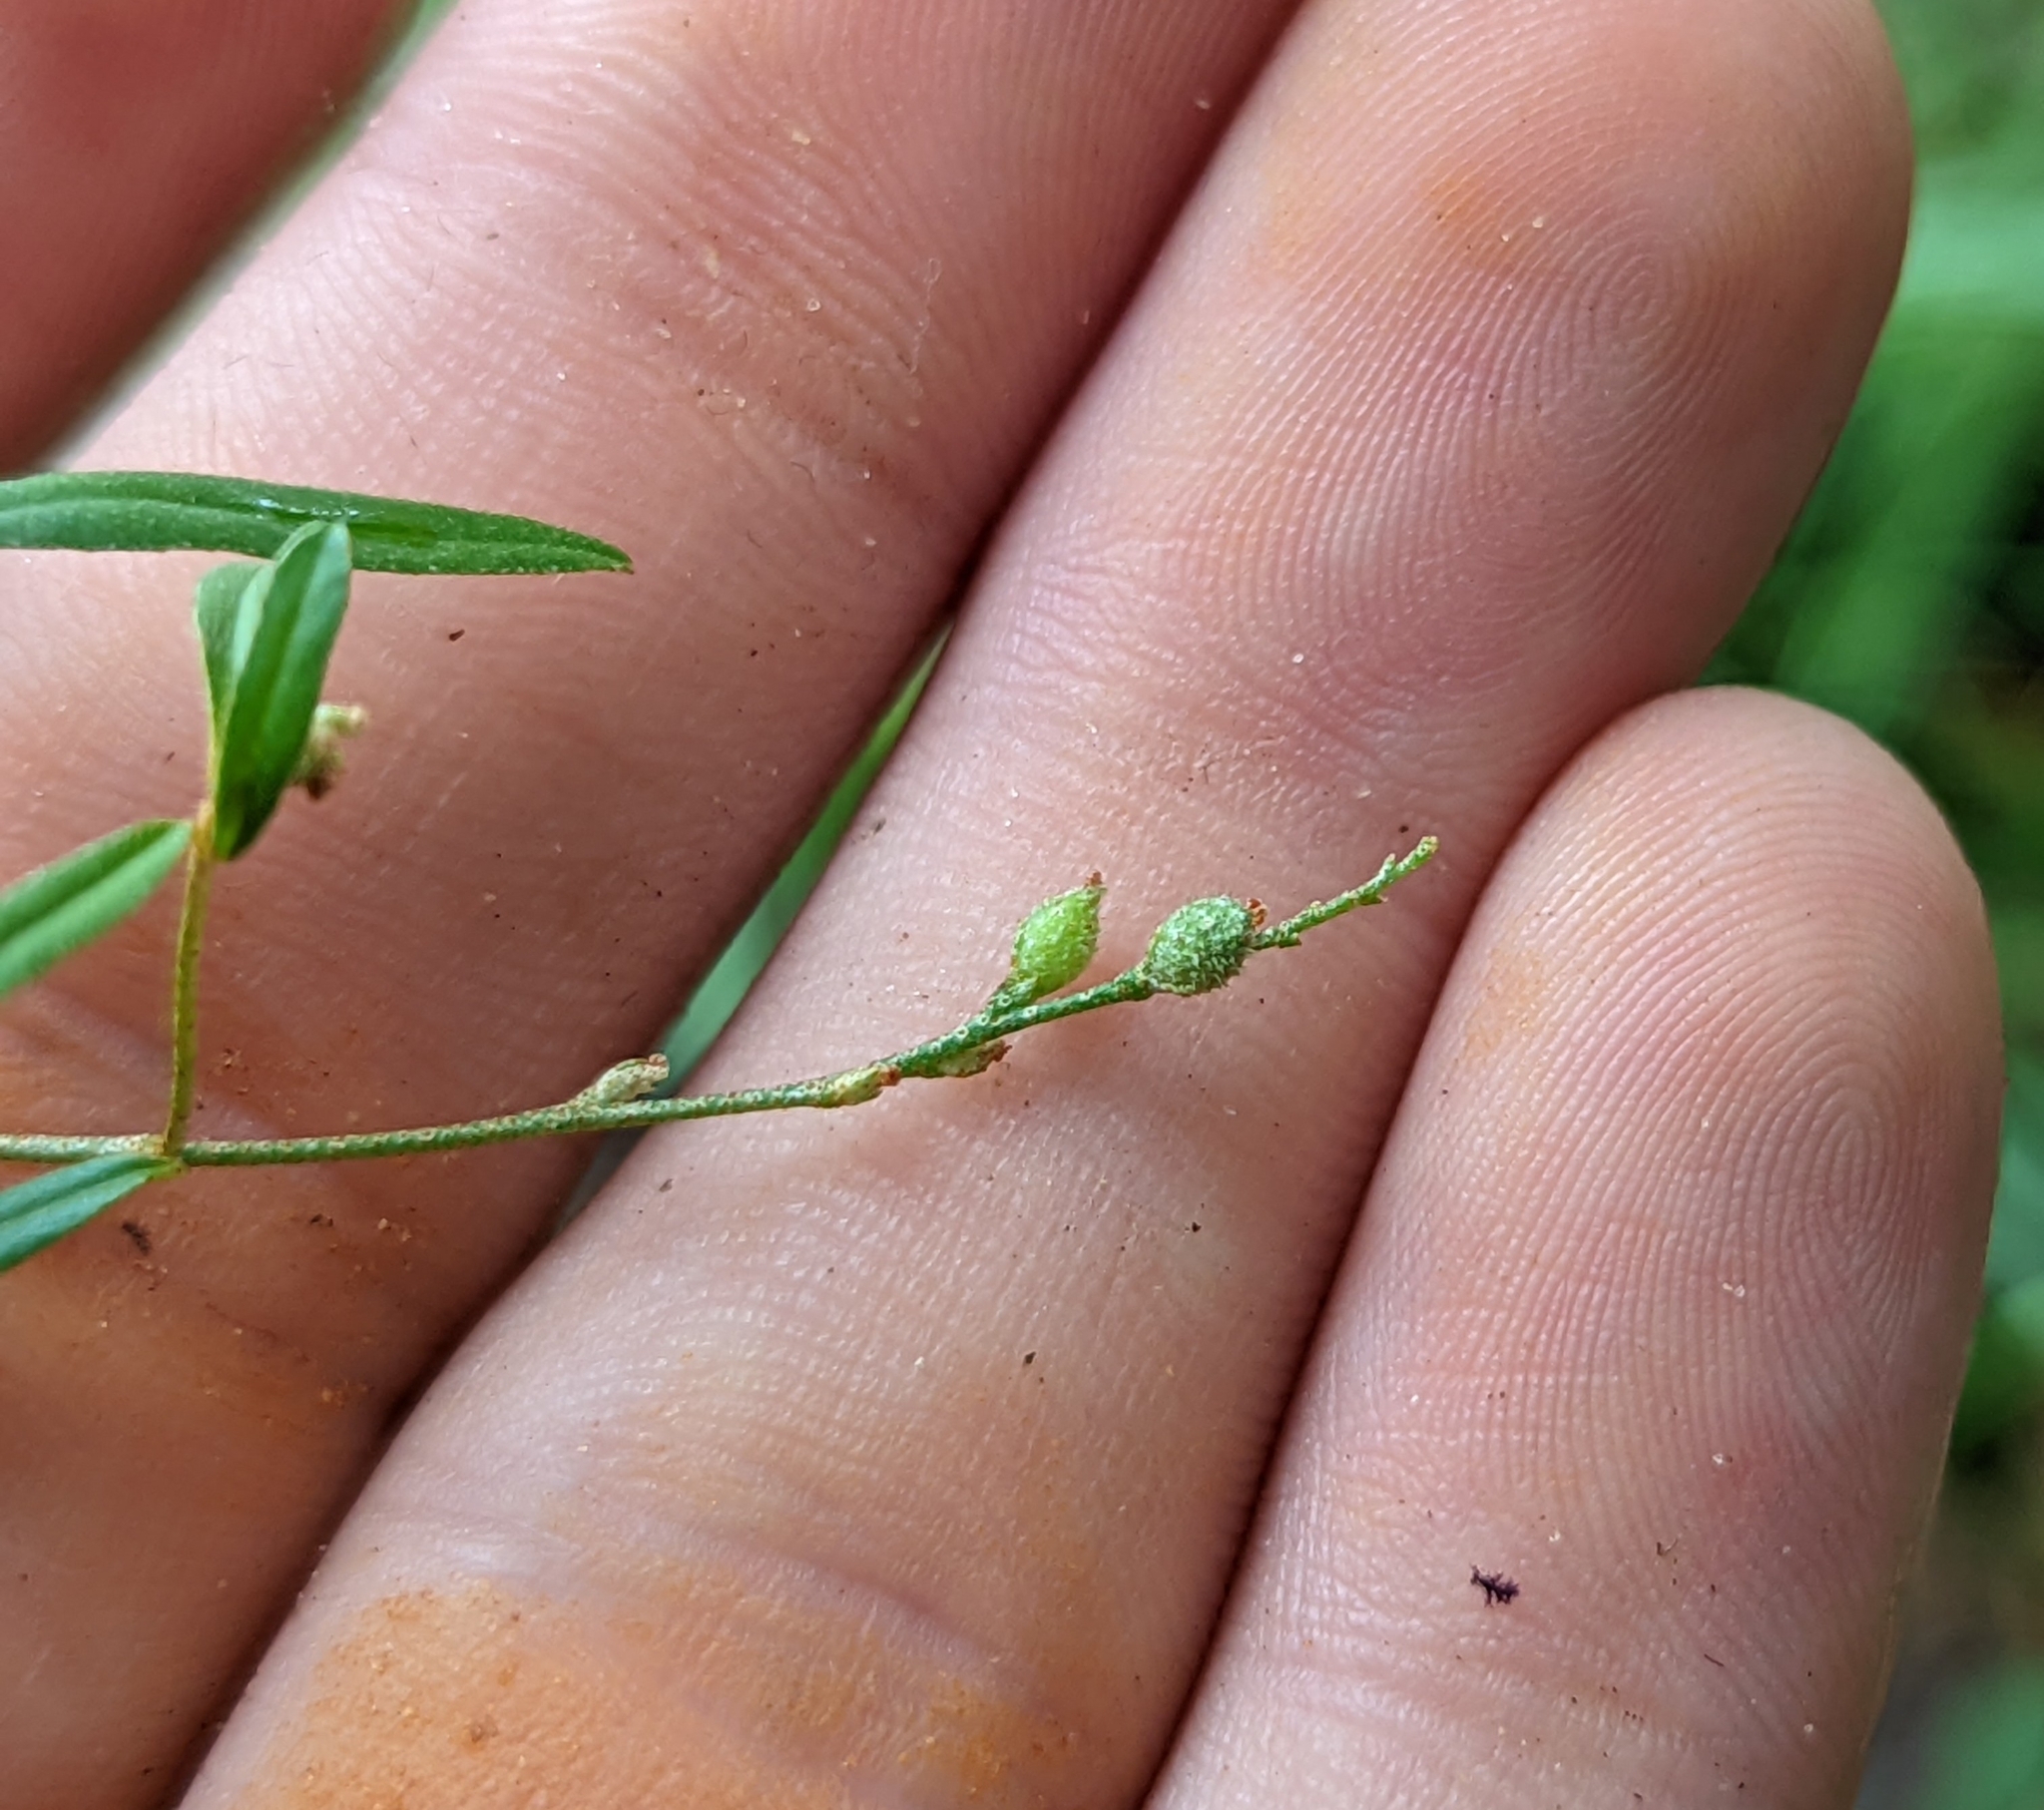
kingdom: Plantae
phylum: Tracheophyta
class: Magnoliopsida
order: Malpighiales
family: Euphorbiaceae
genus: Croton
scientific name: Croton michauxii
